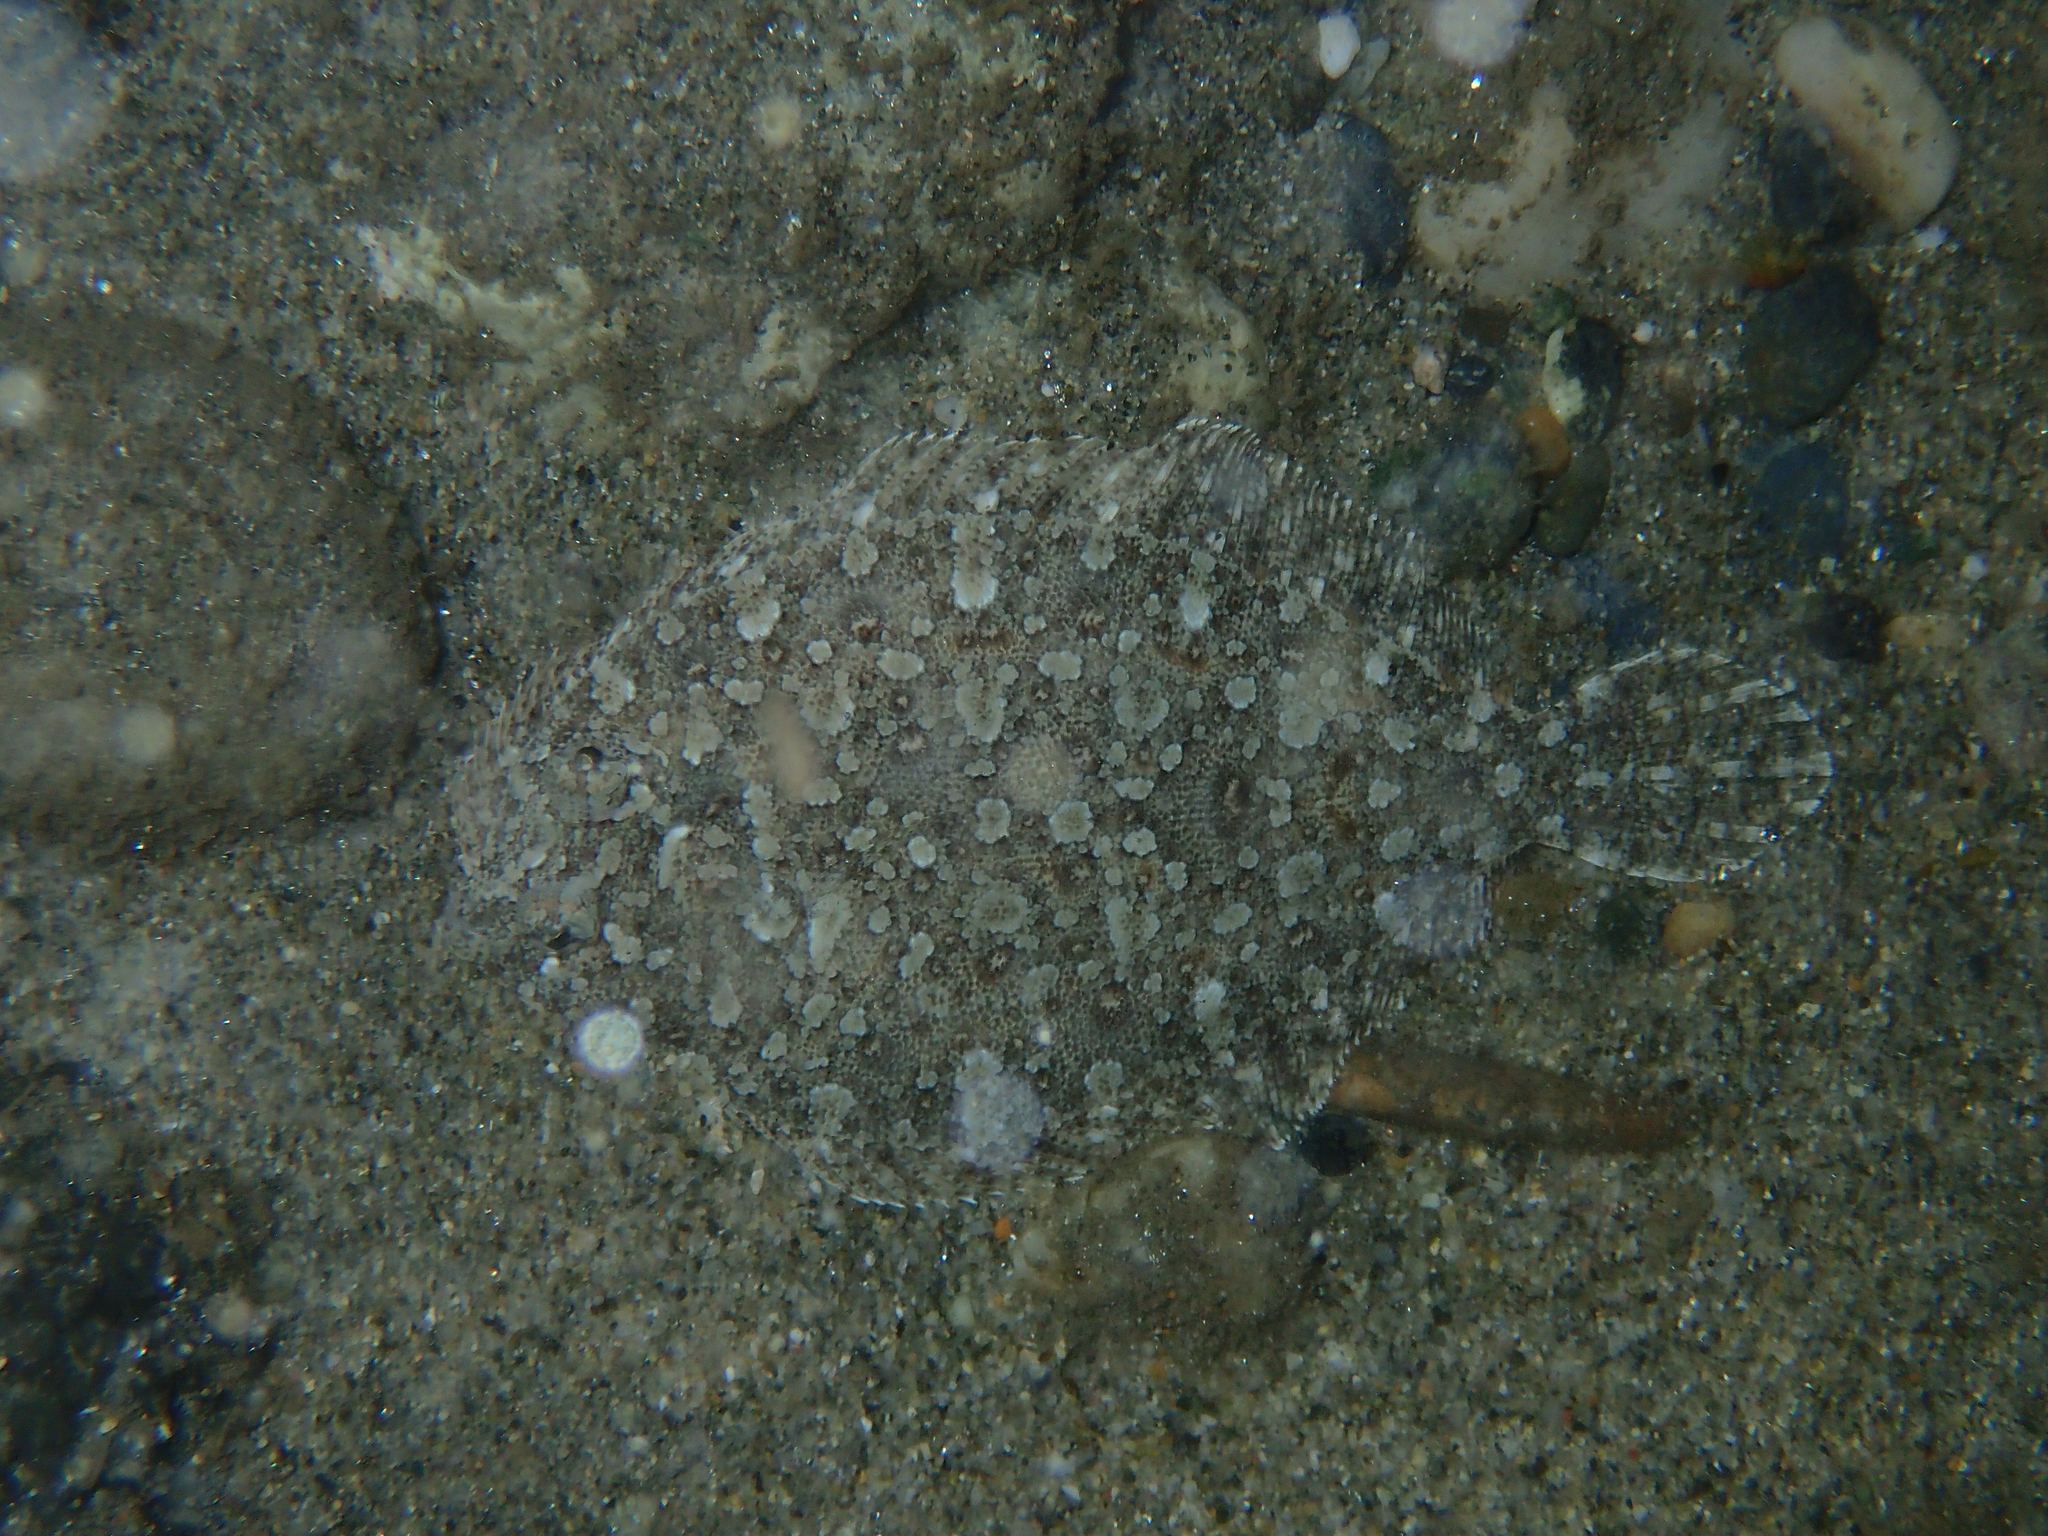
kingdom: Animalia
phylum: Chordata
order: Pleuronectiformes
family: Bothidae
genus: Bothus
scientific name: Bothus podas
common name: Wide-eyed flounder
